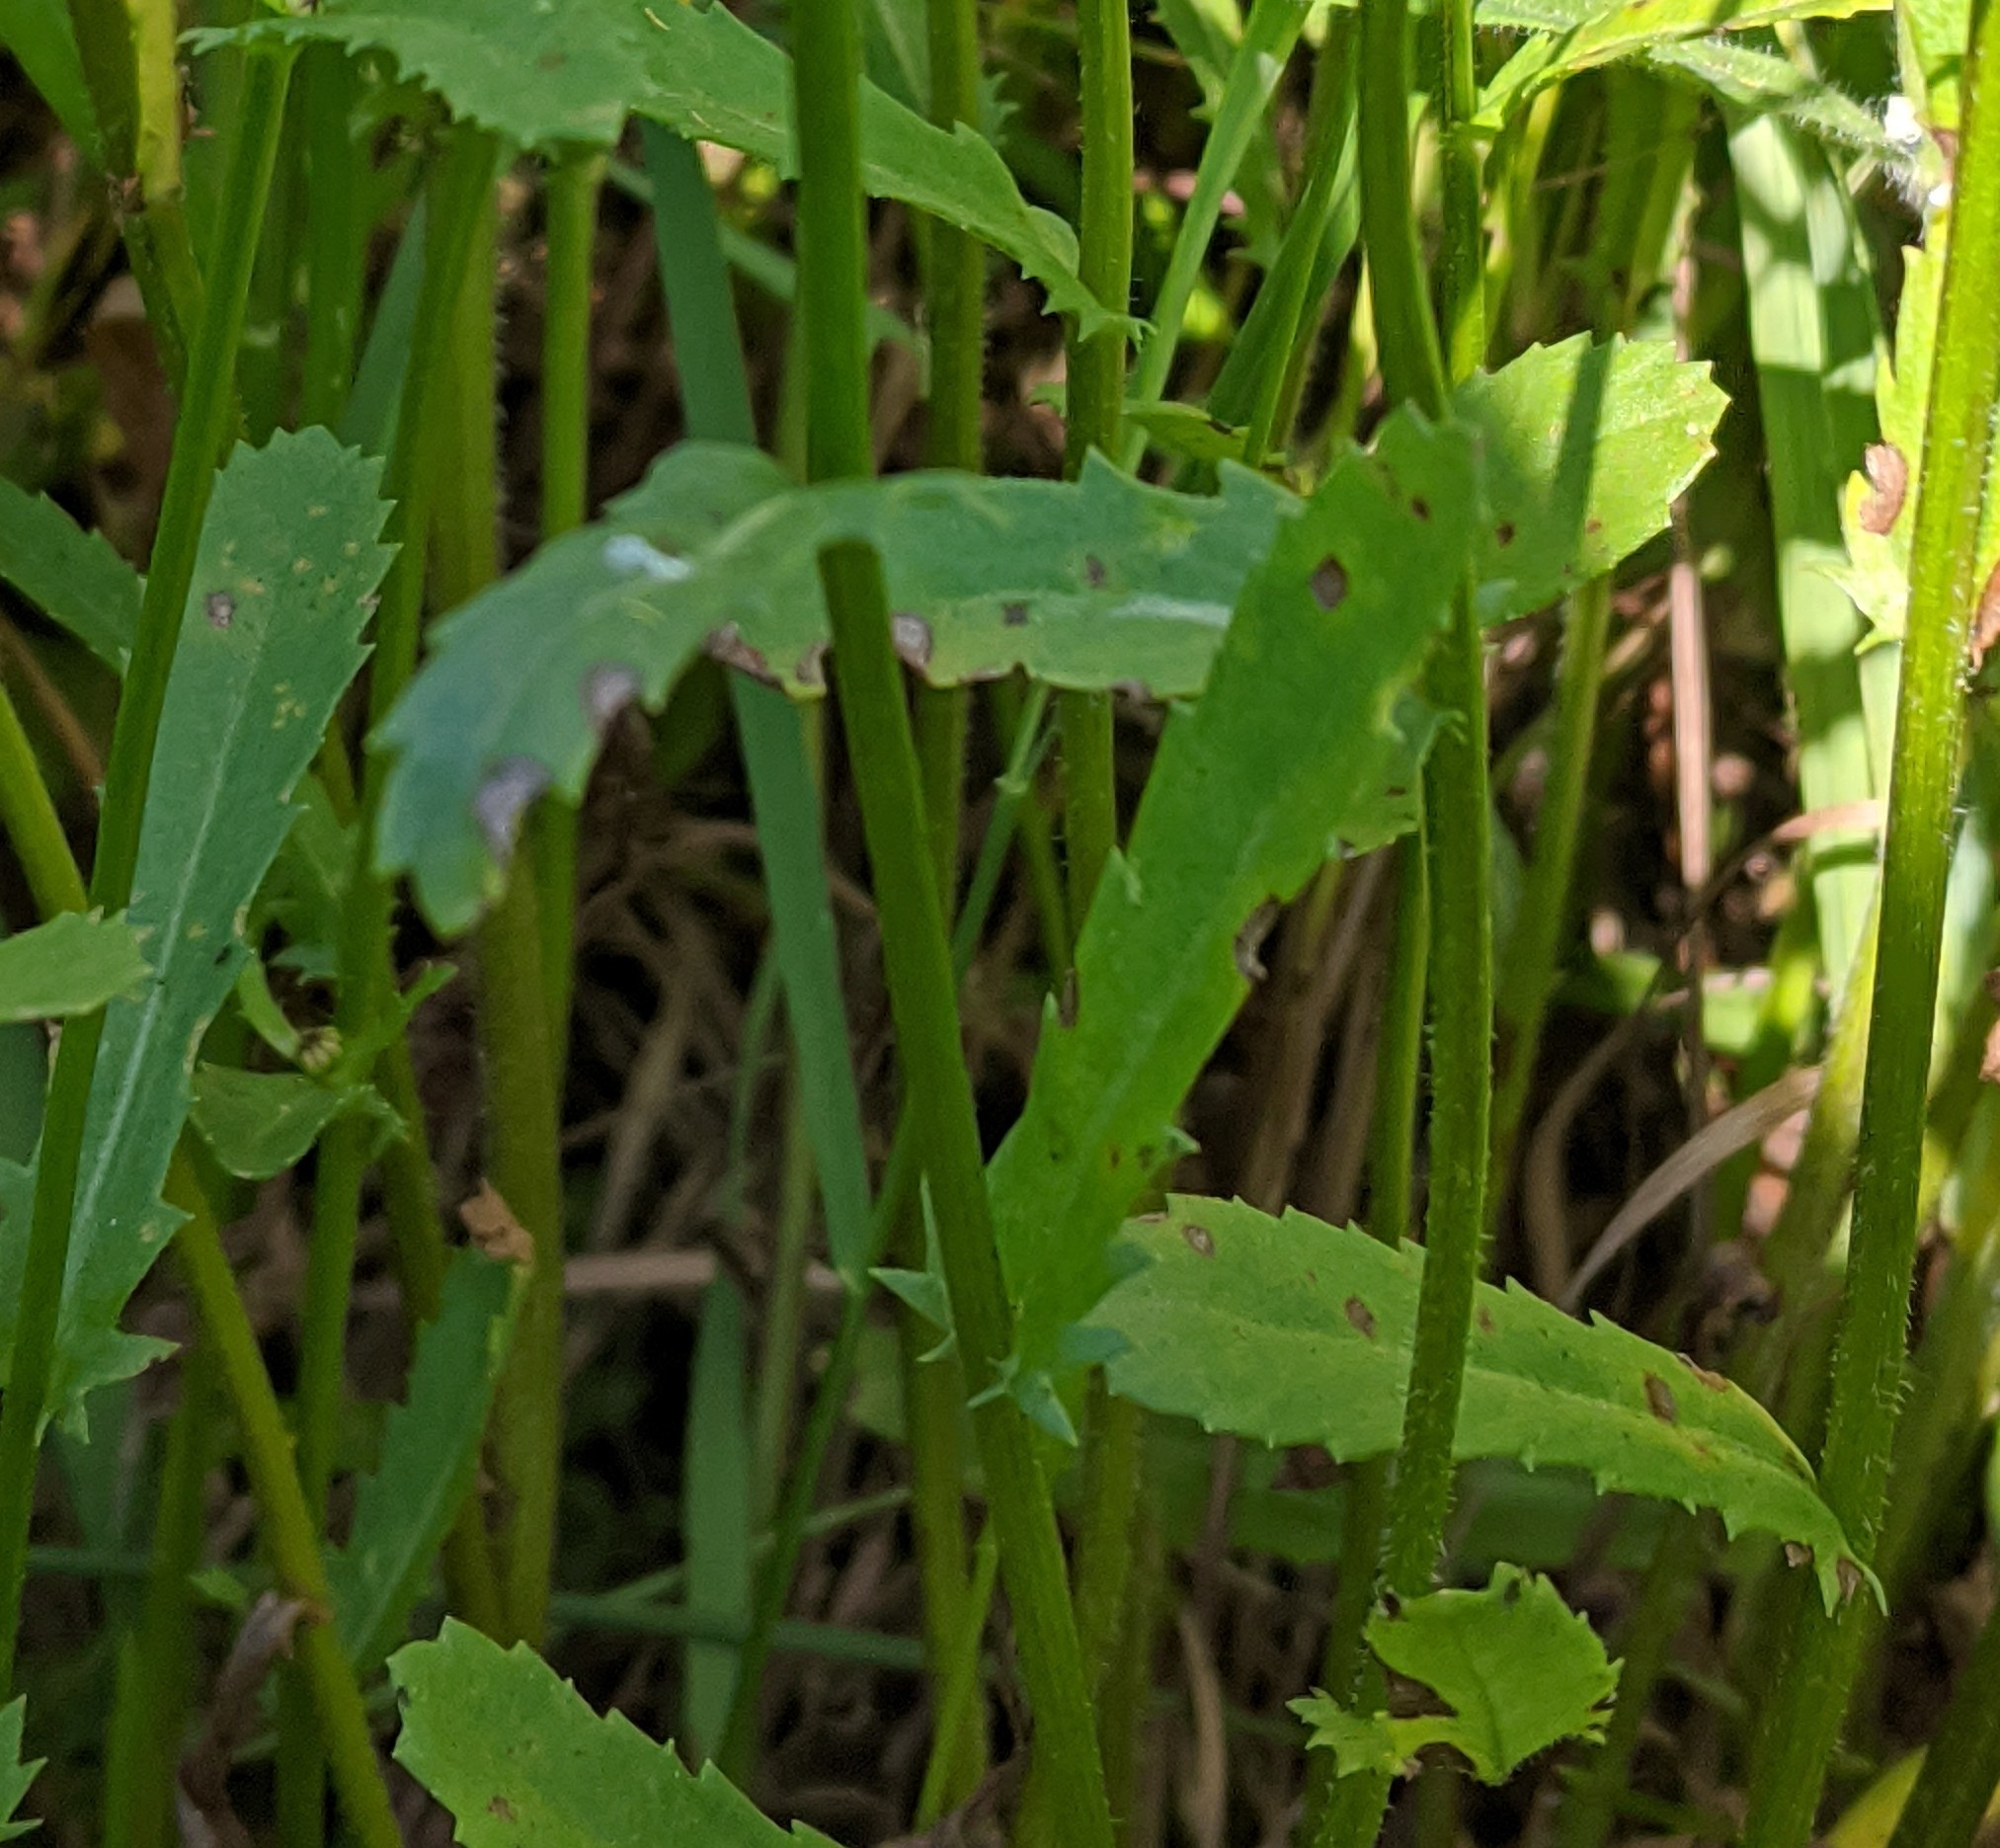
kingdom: Plantae
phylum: Tracheophyta
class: Magnoliopsida
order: Asterales
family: Asteraceae
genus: Leucanthemum
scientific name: Leucanthemum vulgare
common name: Oxeye daisy
